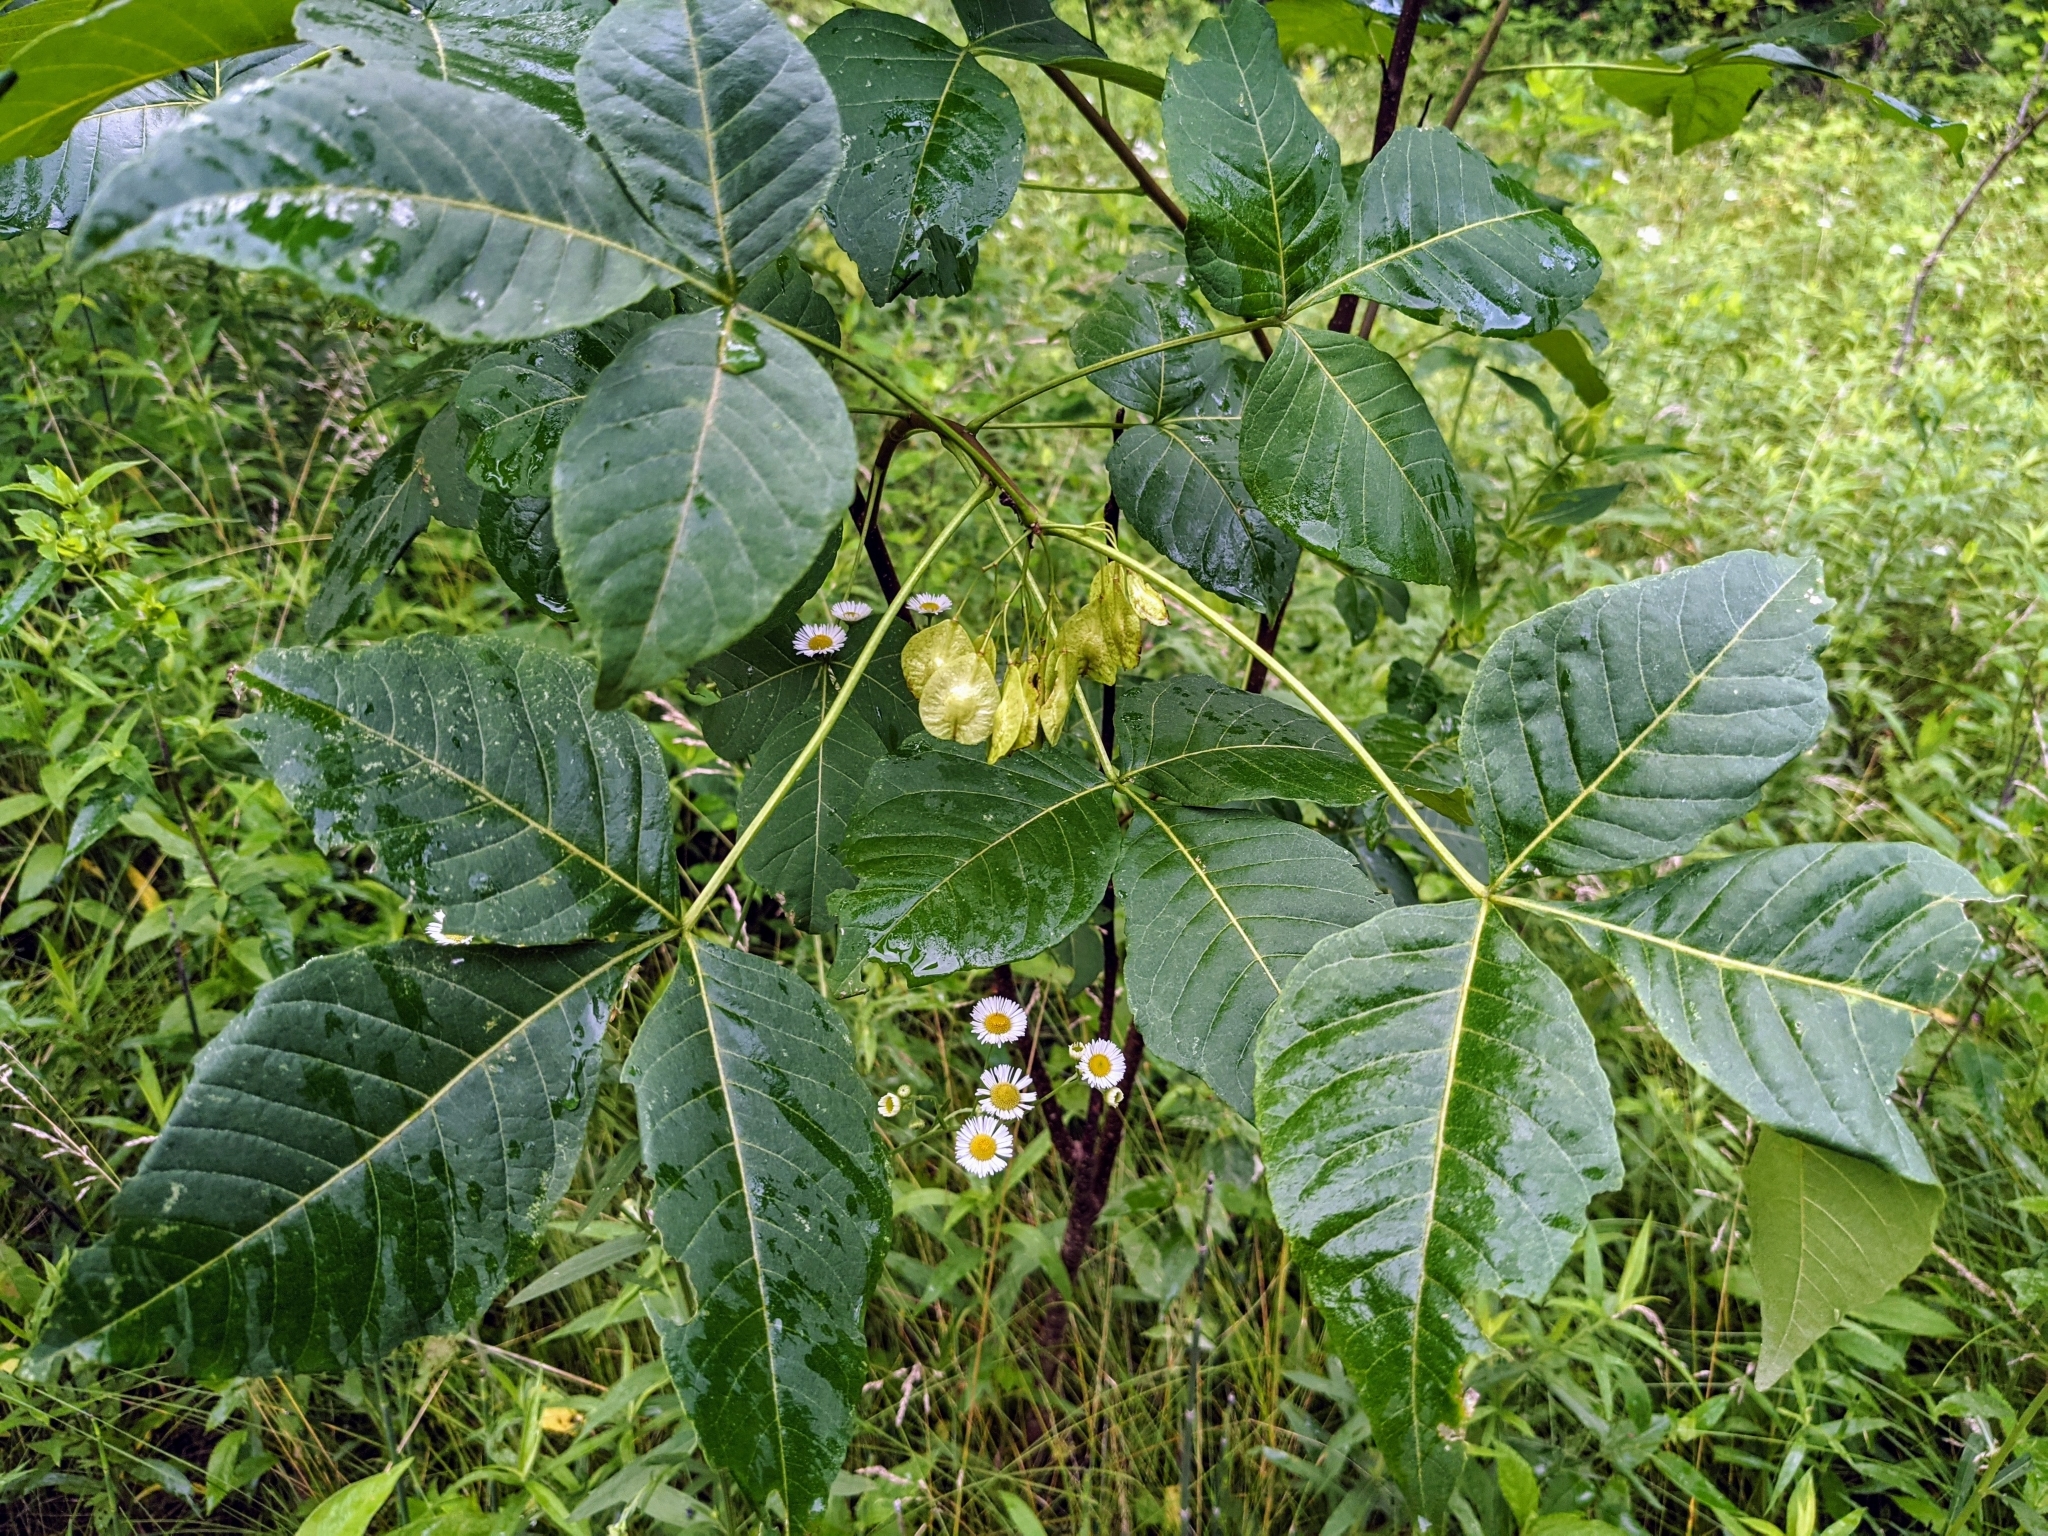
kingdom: Plantae
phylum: Tracheophyta
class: Magnoliopsida
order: Sapindales
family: Rutaceae
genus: Ptelea
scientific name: Ptelea trifoliata
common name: Common hop-tree
